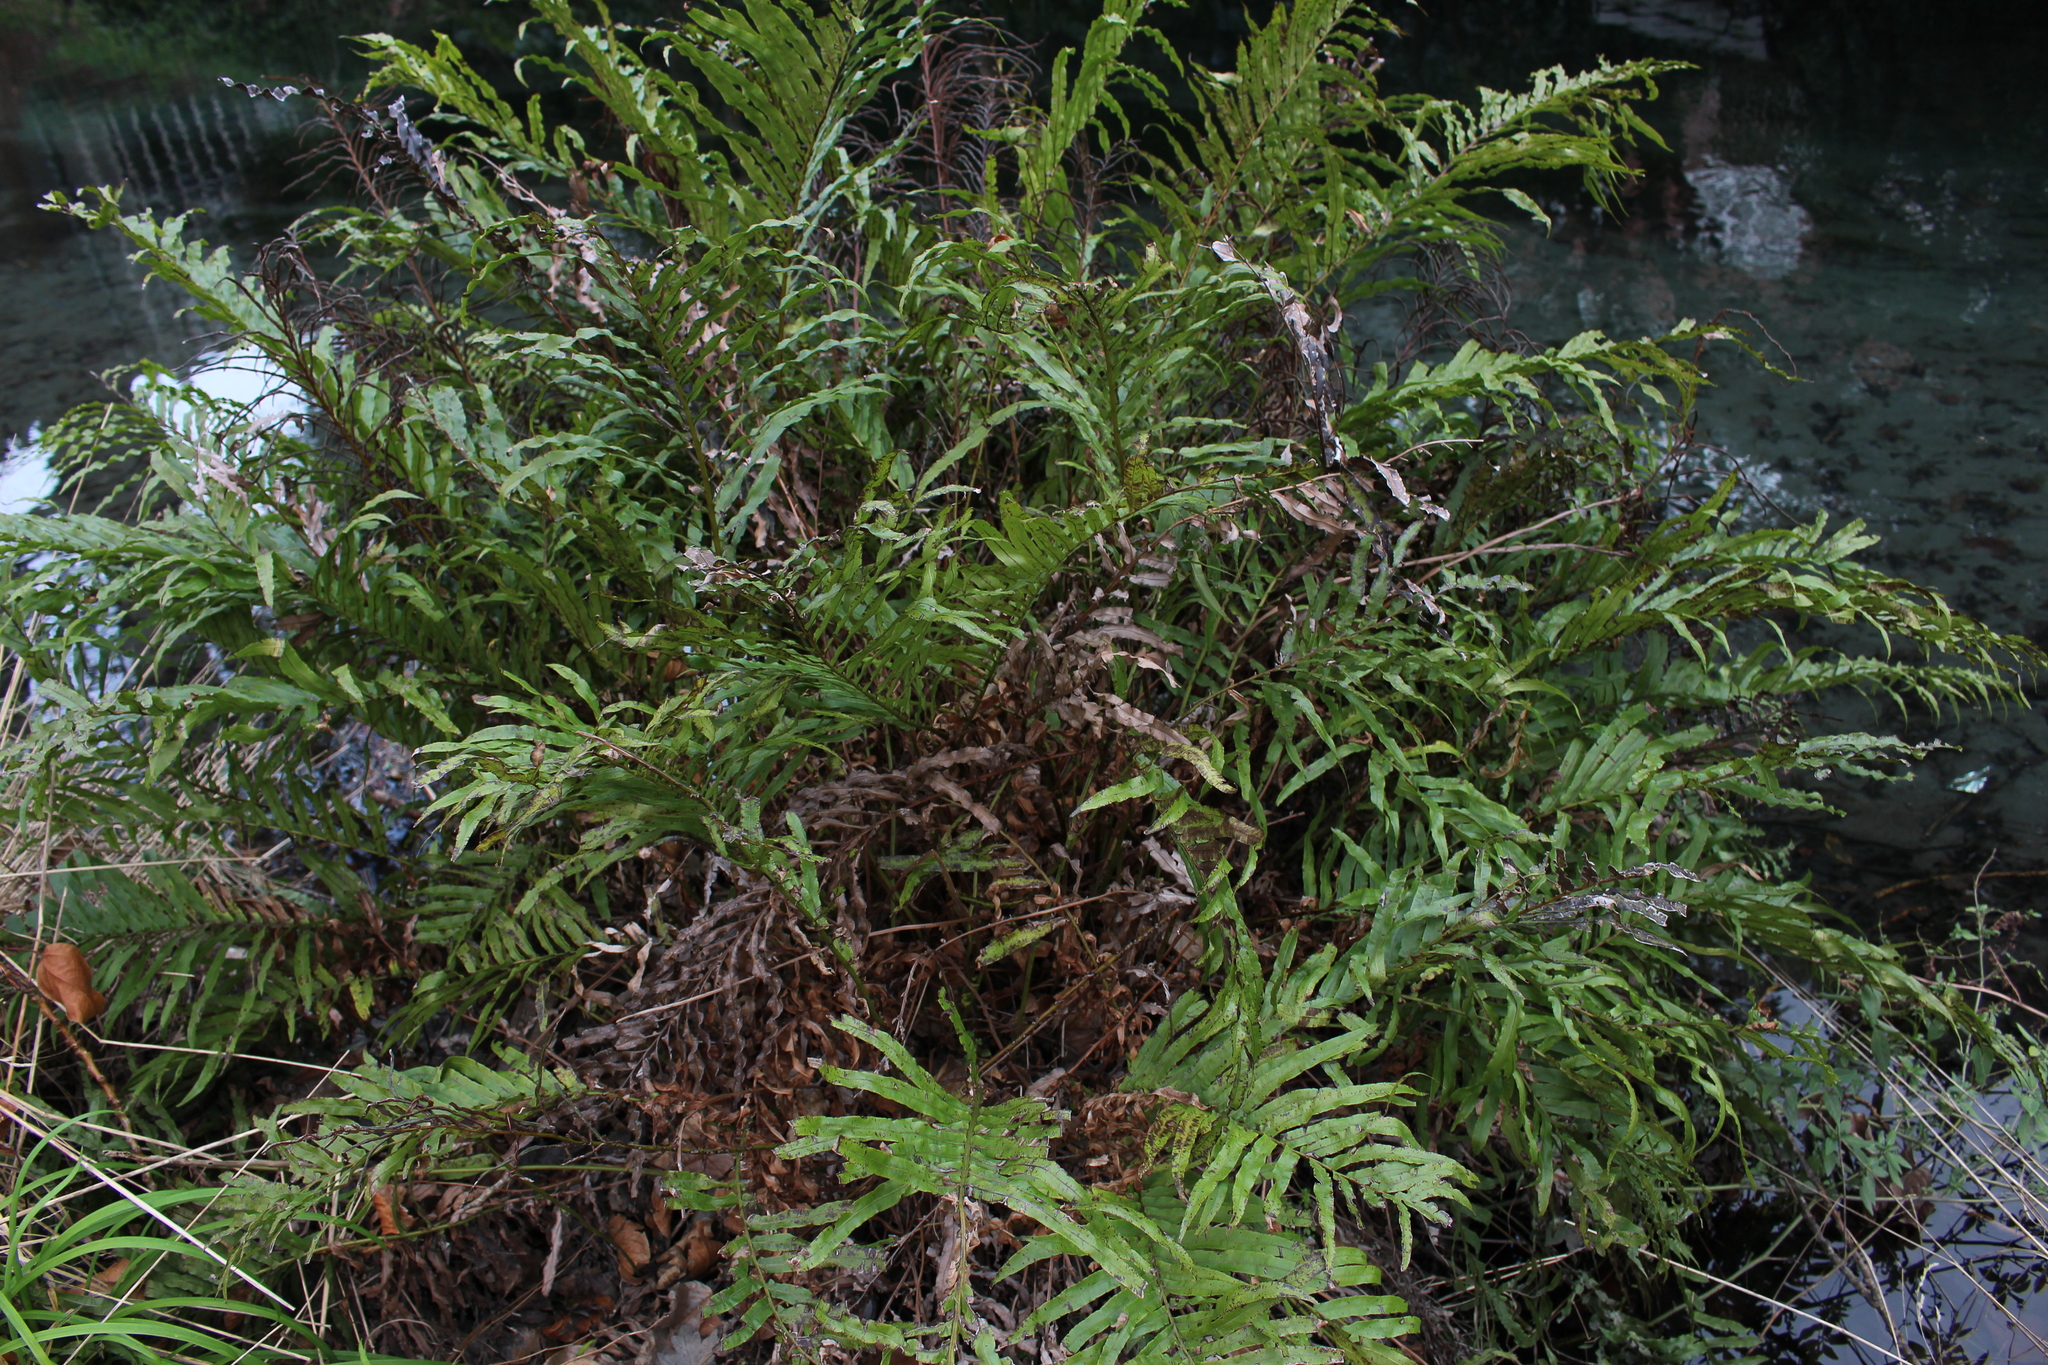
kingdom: Plantae
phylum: Tracheophyta
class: Polypodiopsida
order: Polypodiales
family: Blechnaceae
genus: Parablechnum
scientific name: Parablechnum minus
